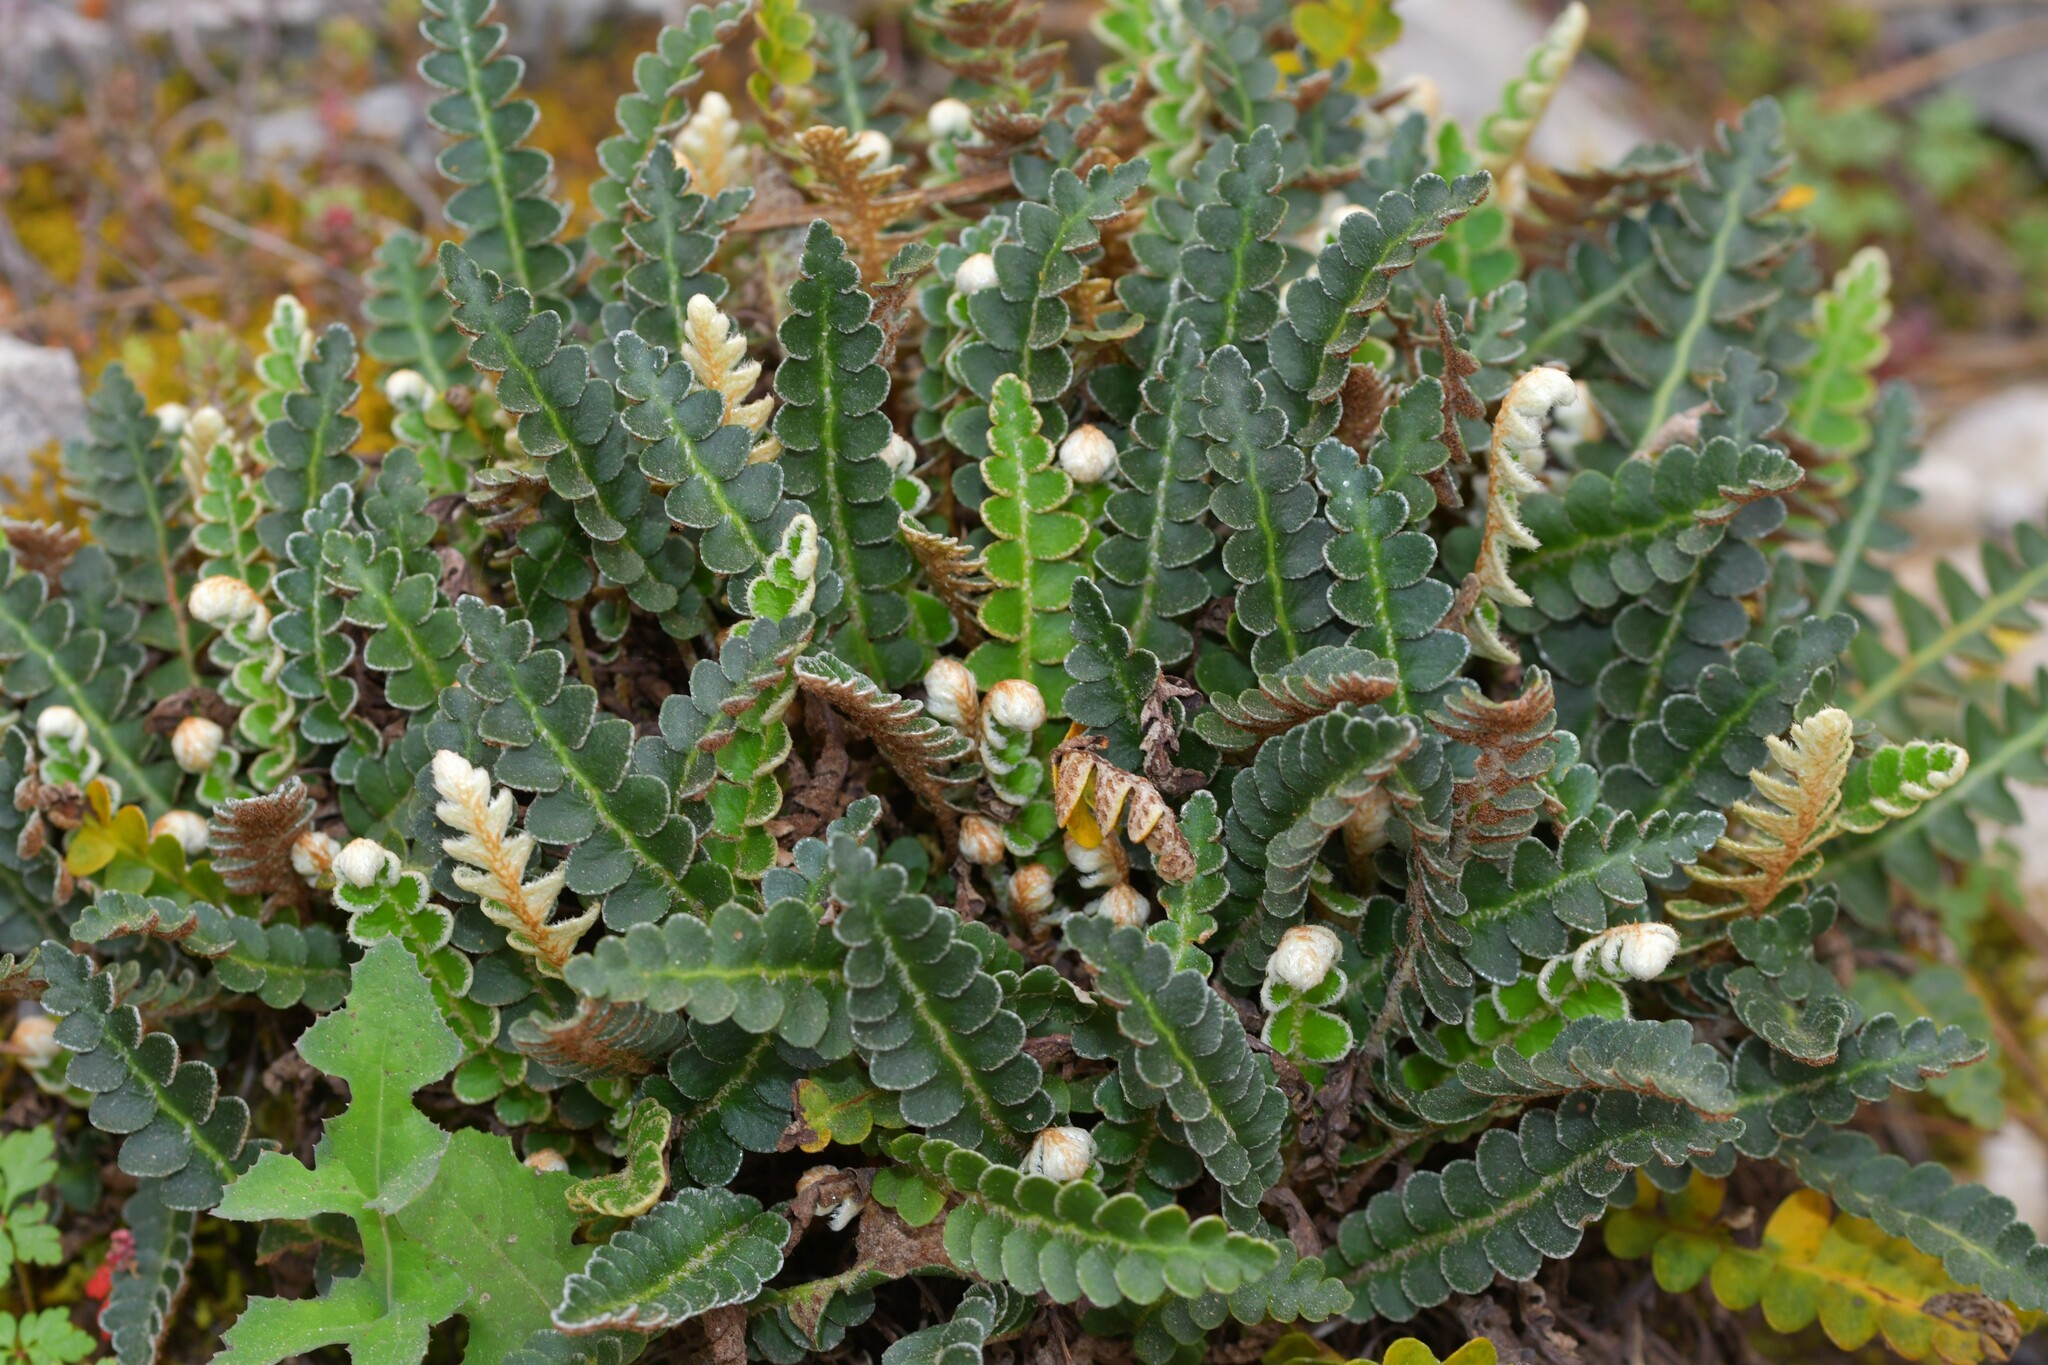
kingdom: Plantae
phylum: Tracheophyta
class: Polypodiopsida
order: Polypodiales
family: Aspleniaceae
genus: Asplenium
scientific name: Asplenium ceterach
